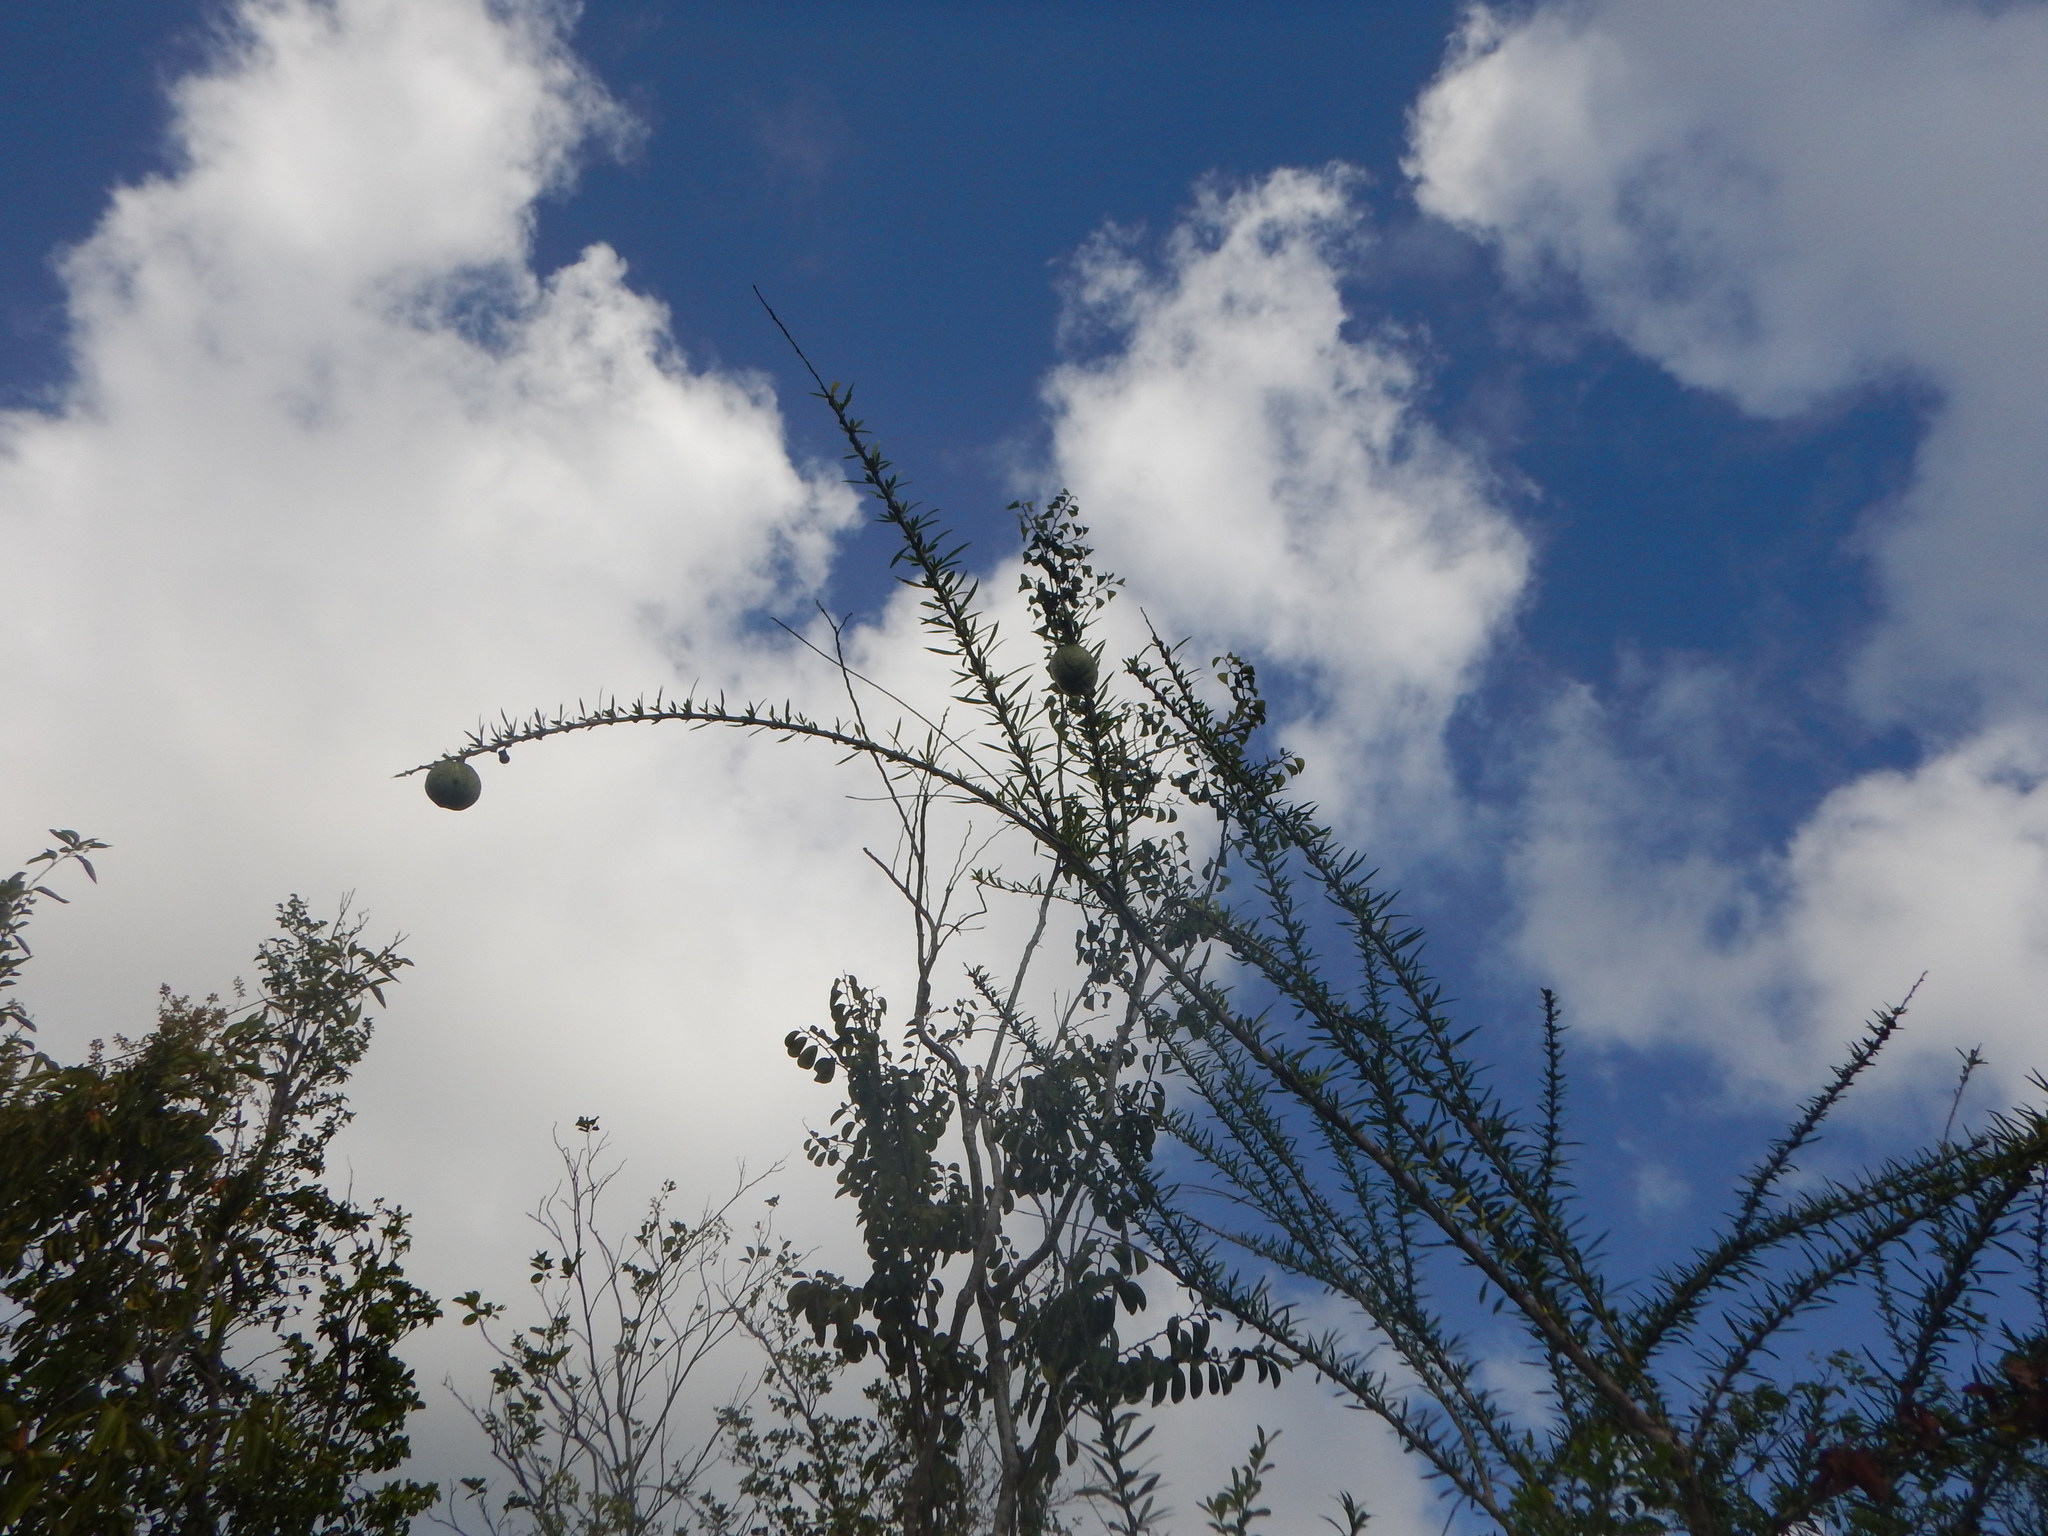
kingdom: Plantae
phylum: Tracheophyta
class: Magnoliopsida
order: Lamiales
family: Bignoniaceae
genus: Crescentia
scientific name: Crescentia linearifolia
